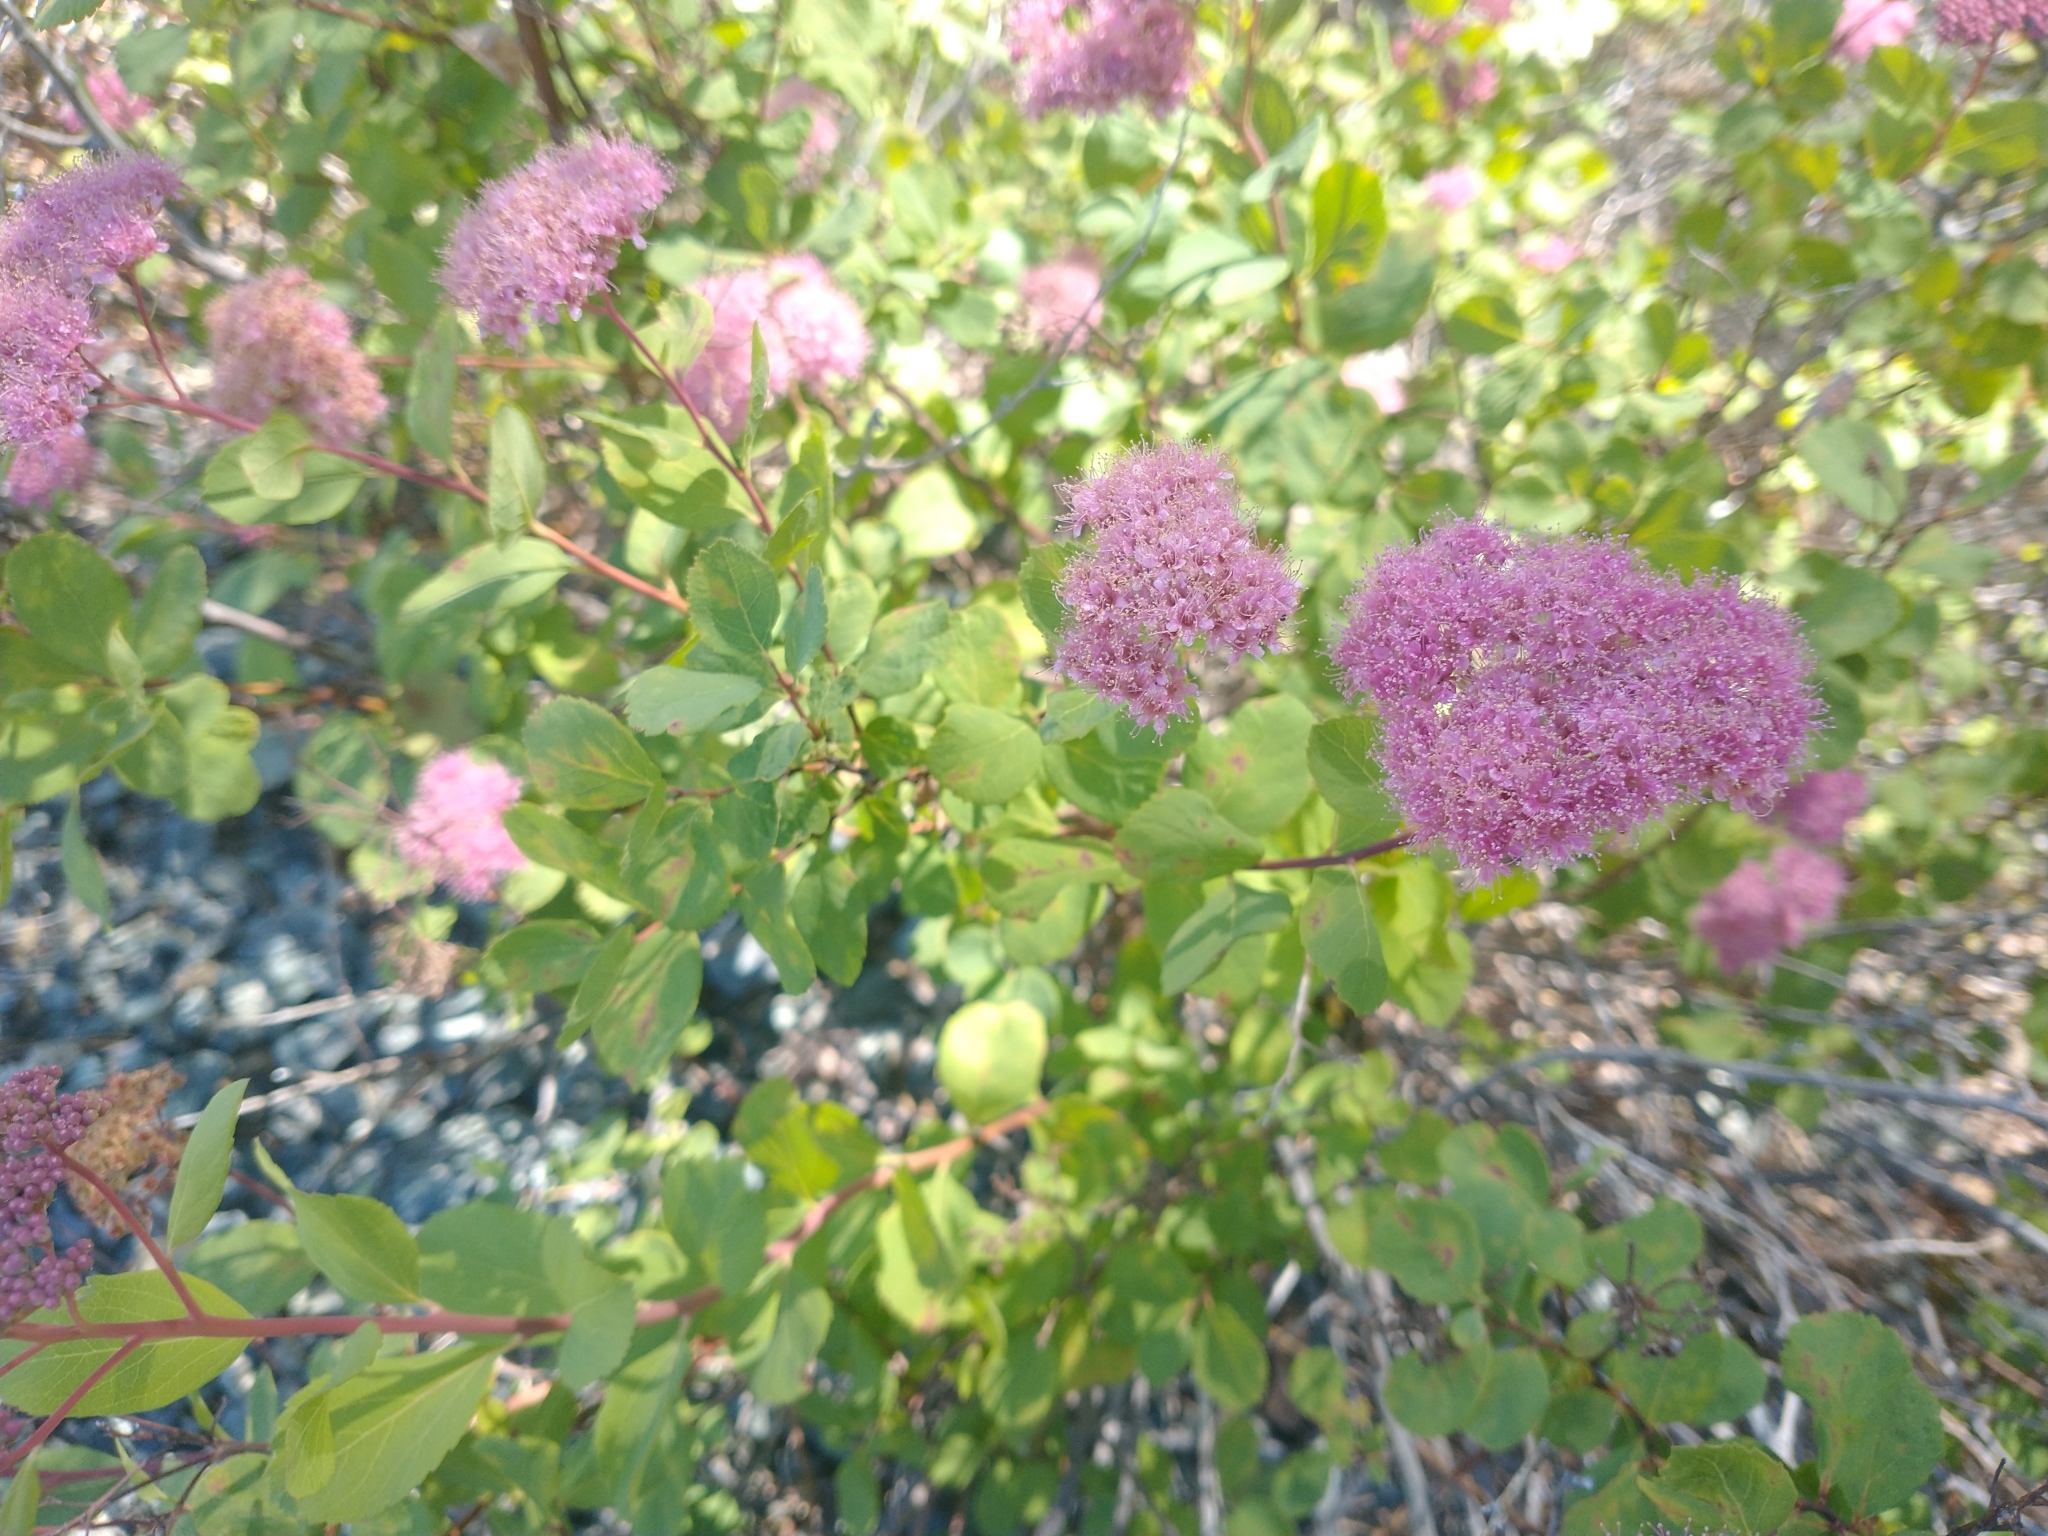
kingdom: Plantae
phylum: Tracheophyta
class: Magnoliopsida
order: Rosales
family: Rosaceae
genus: Spiraea
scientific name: Spiraea splendens
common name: Subalpine meadowsweet
